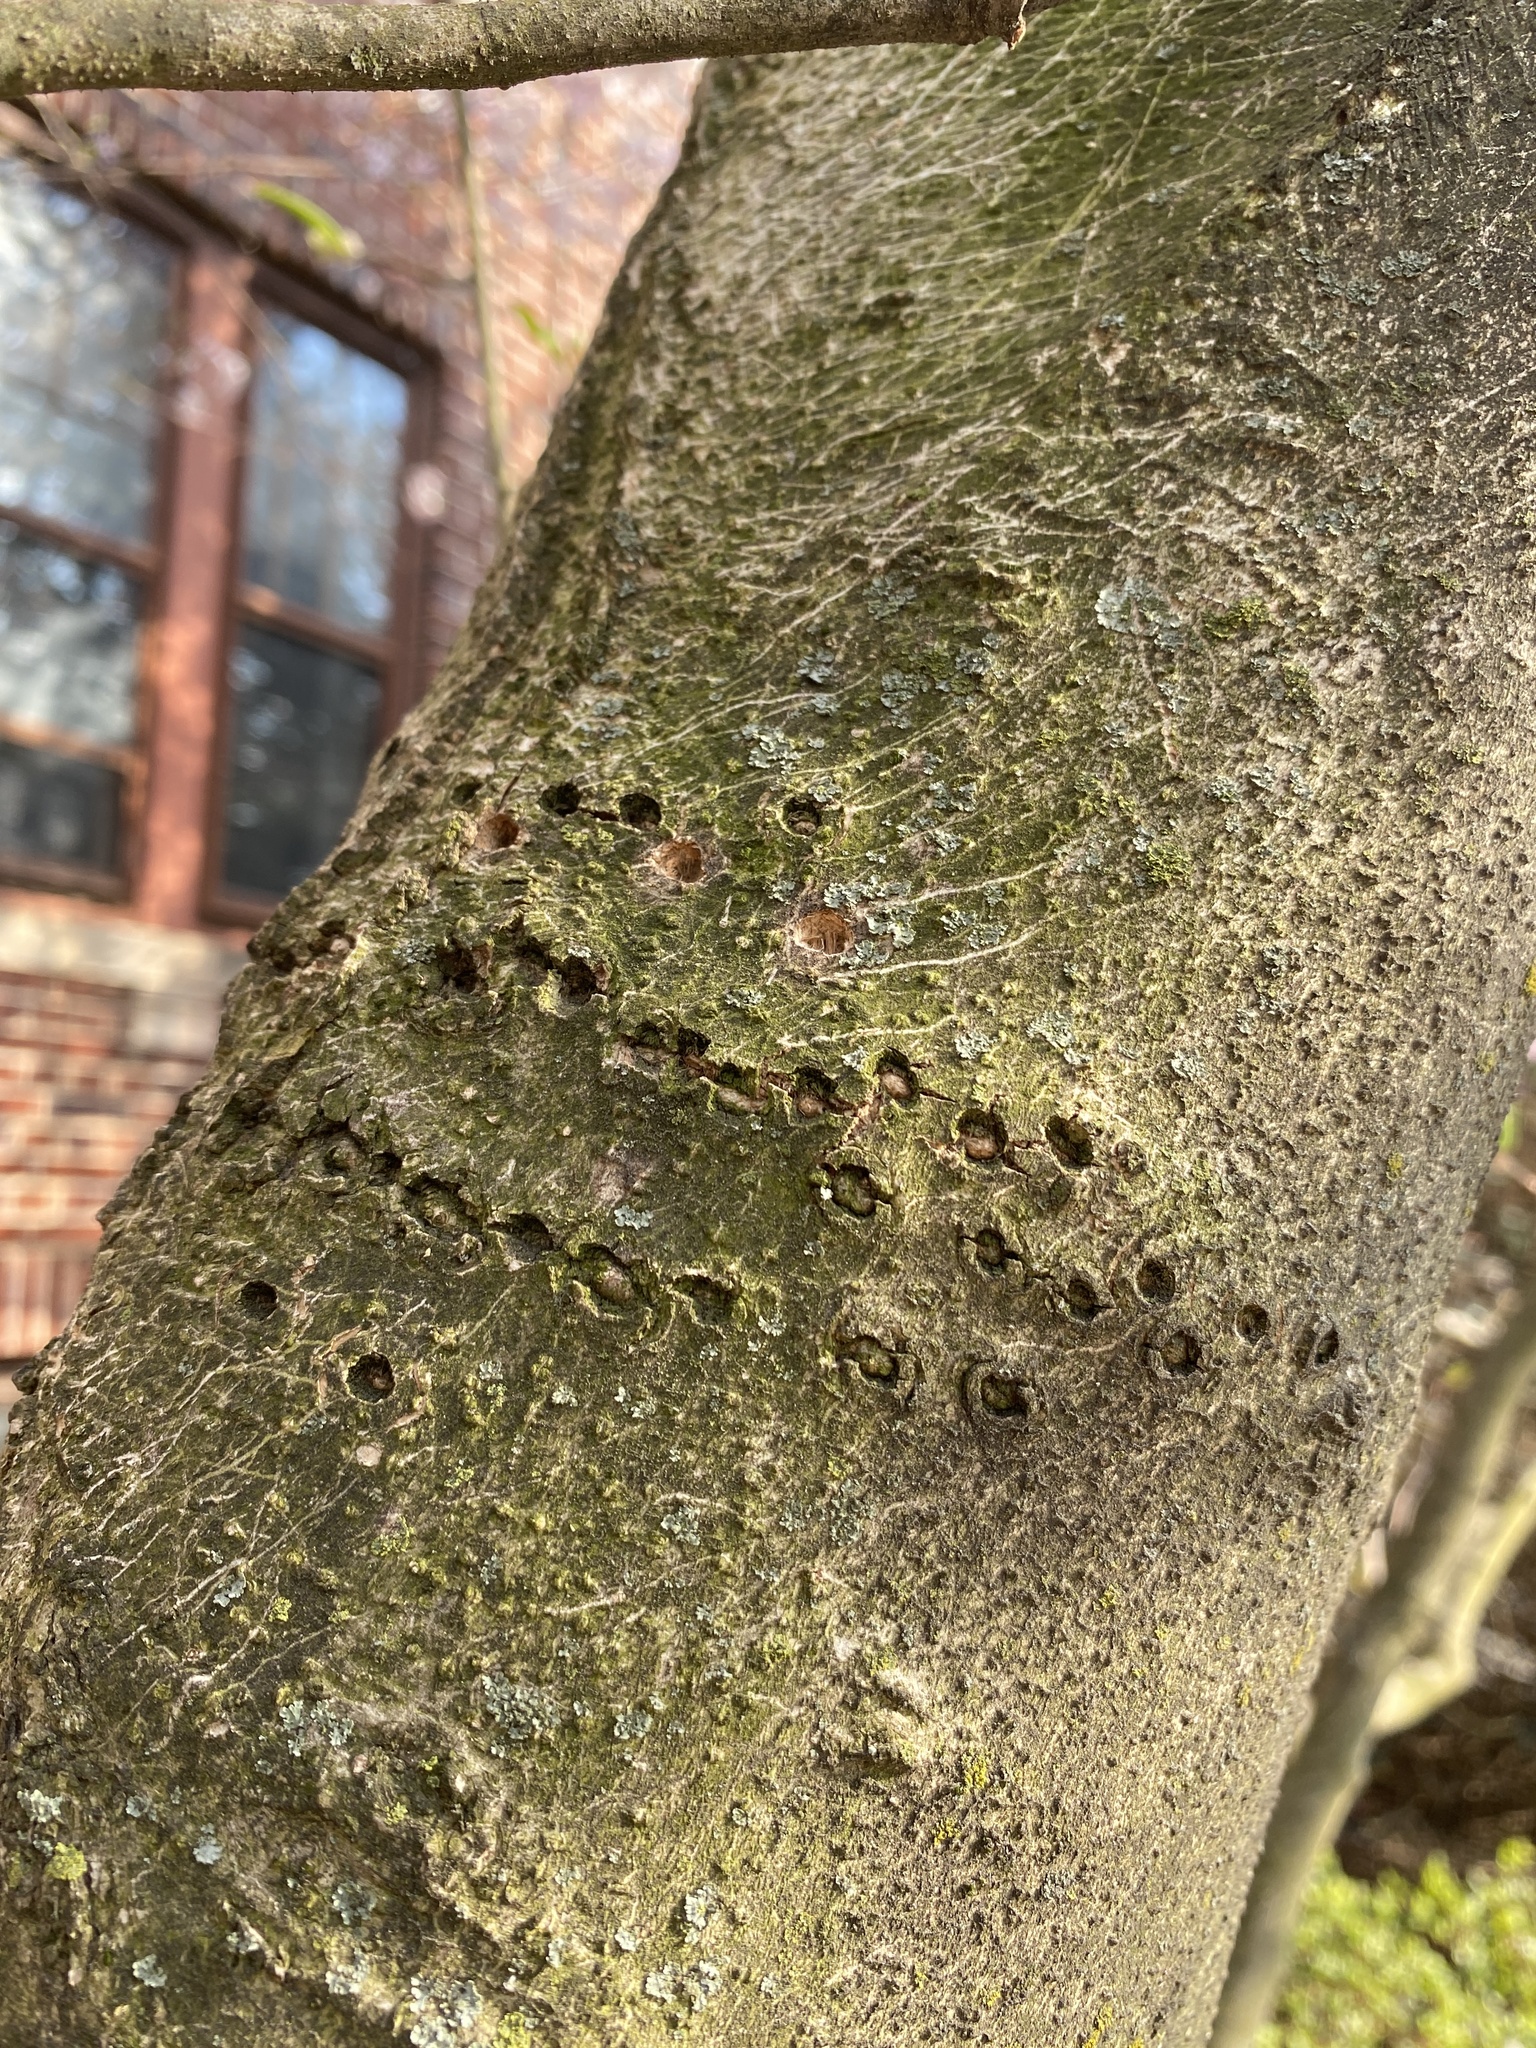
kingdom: Animalia
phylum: Chordata
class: Aves
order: Piciformes
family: Picidae
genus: Sphyrapicus
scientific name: Sphyrapicus varius
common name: Yellow-bellied sapsucker
